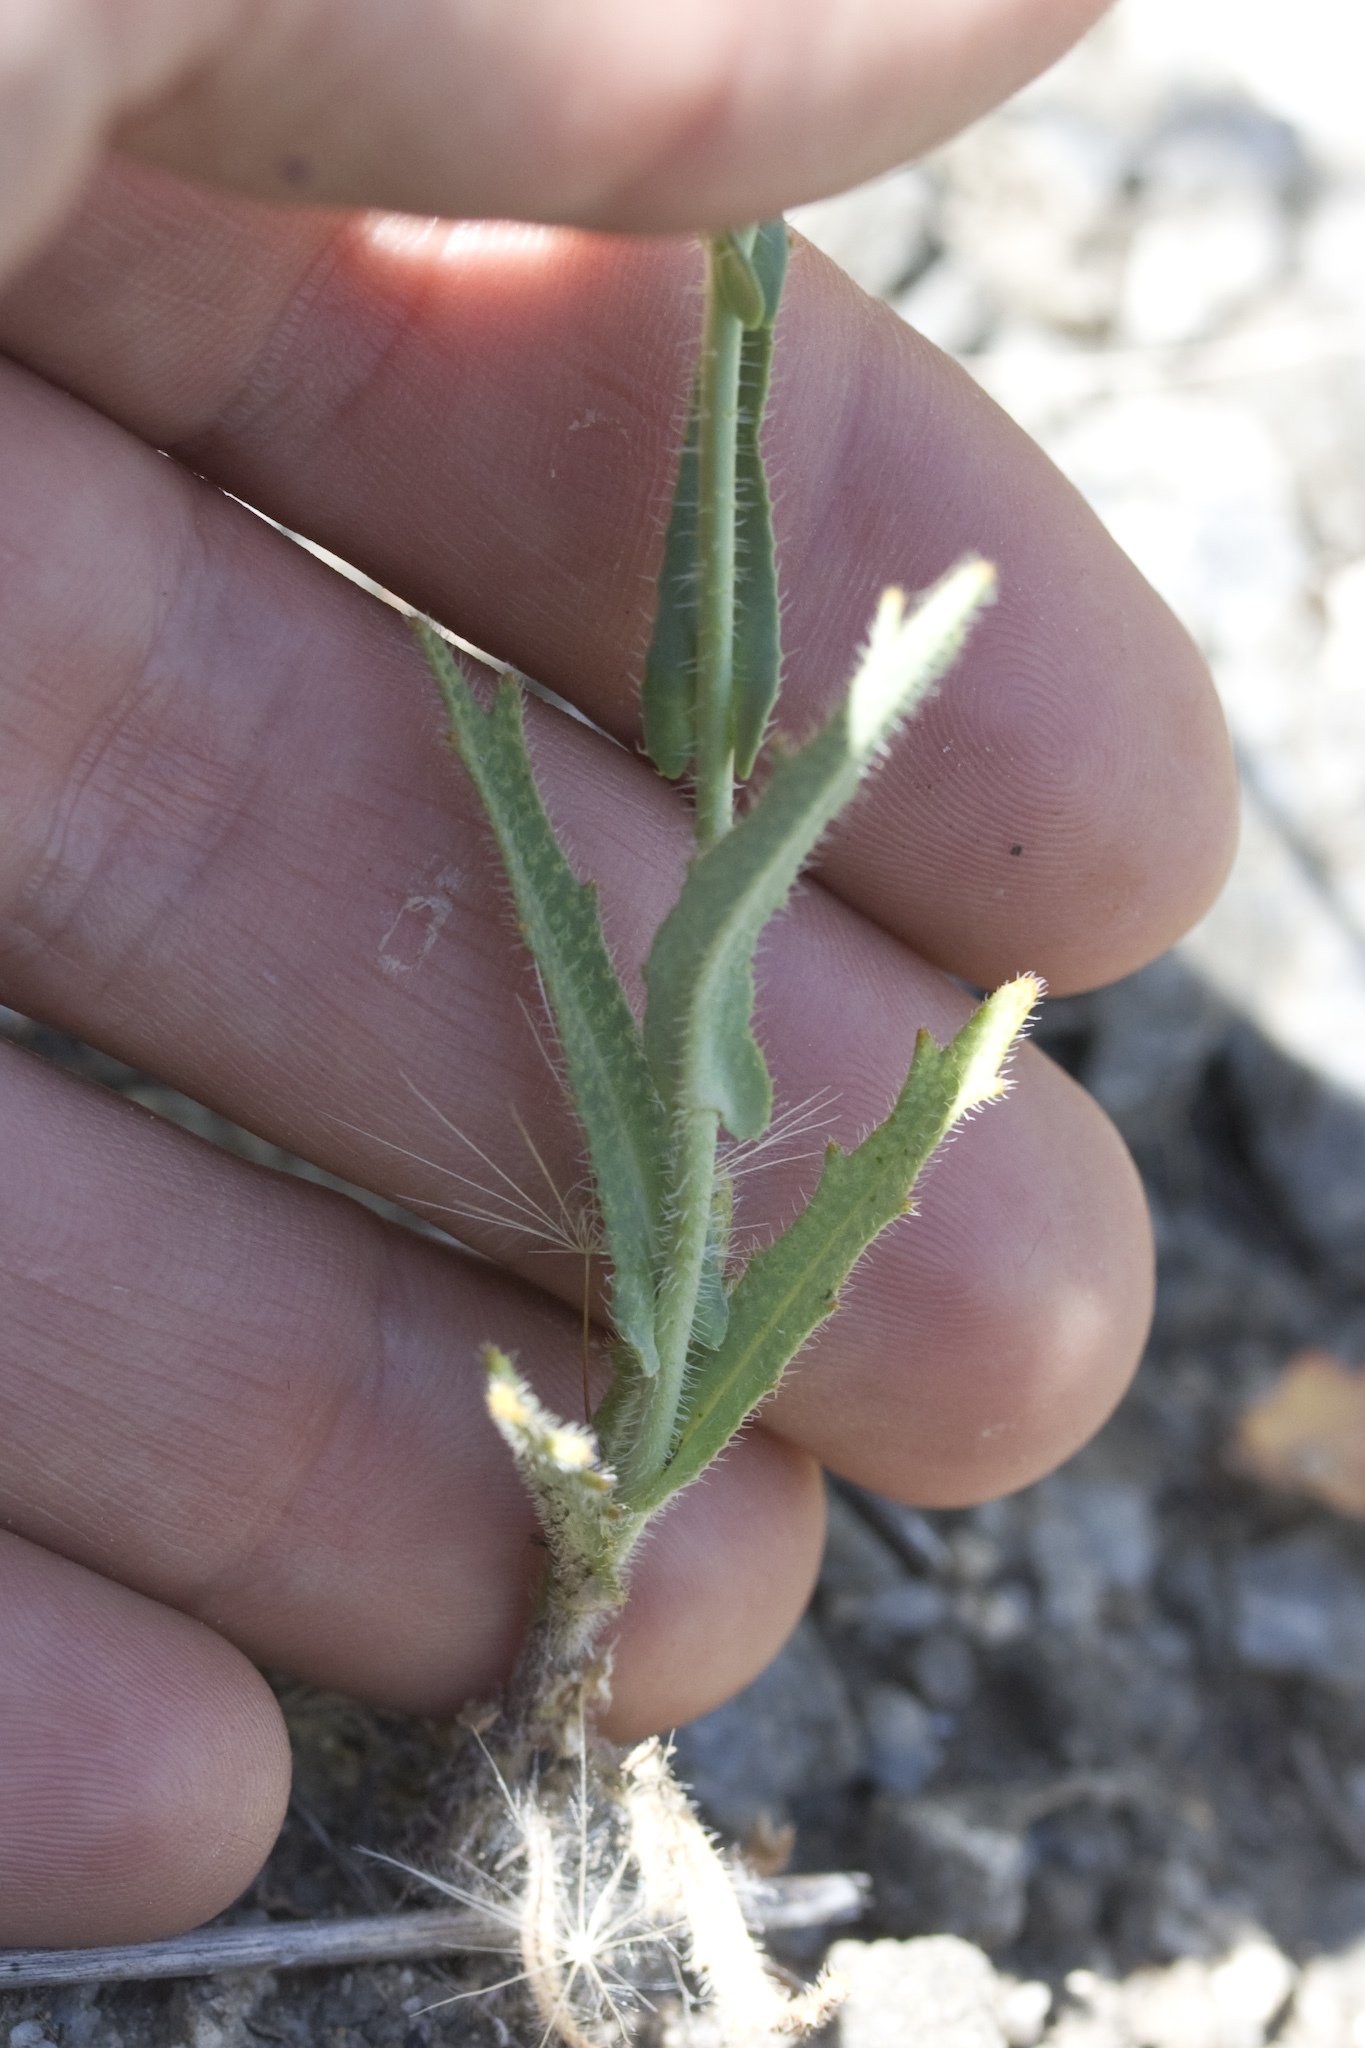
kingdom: Plantae
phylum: Tracheophyta
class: Magnoliopsida
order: Brassicales
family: Brassicaceae
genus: Streptanthus
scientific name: Streptanthus glandulosus
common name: Jewel-flower
